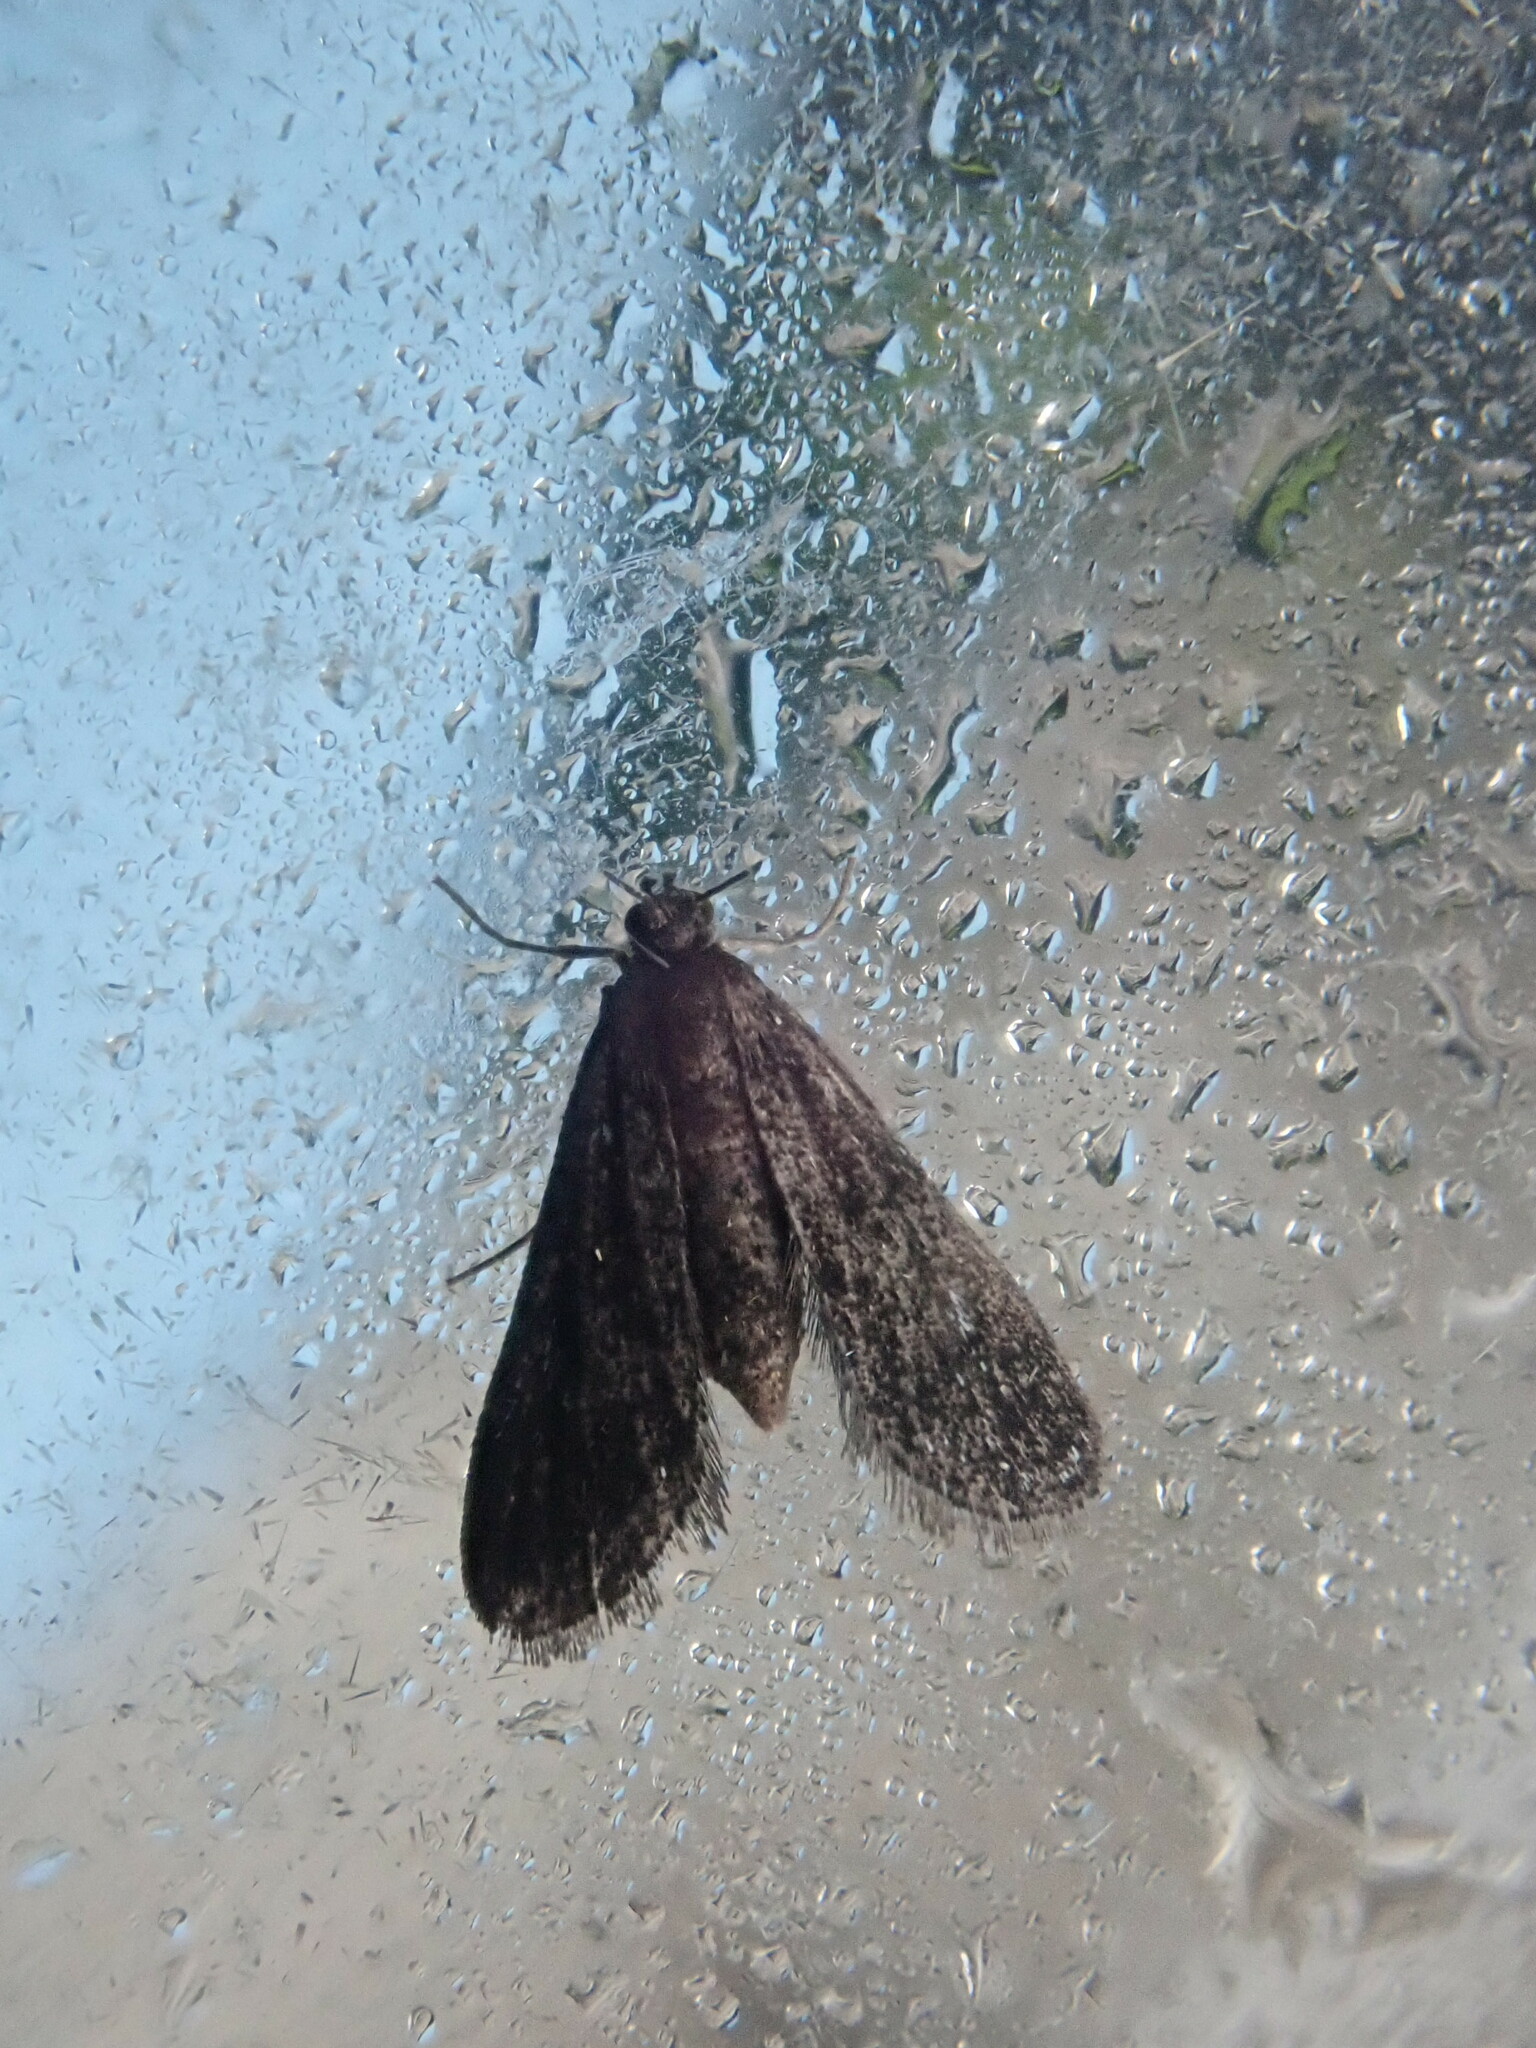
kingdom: Animalia
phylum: Arthropoda
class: Insecta
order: Lepidoptera
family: Crambidae
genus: Elophila
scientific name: Elophila tinealis
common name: Black duckweed moth
